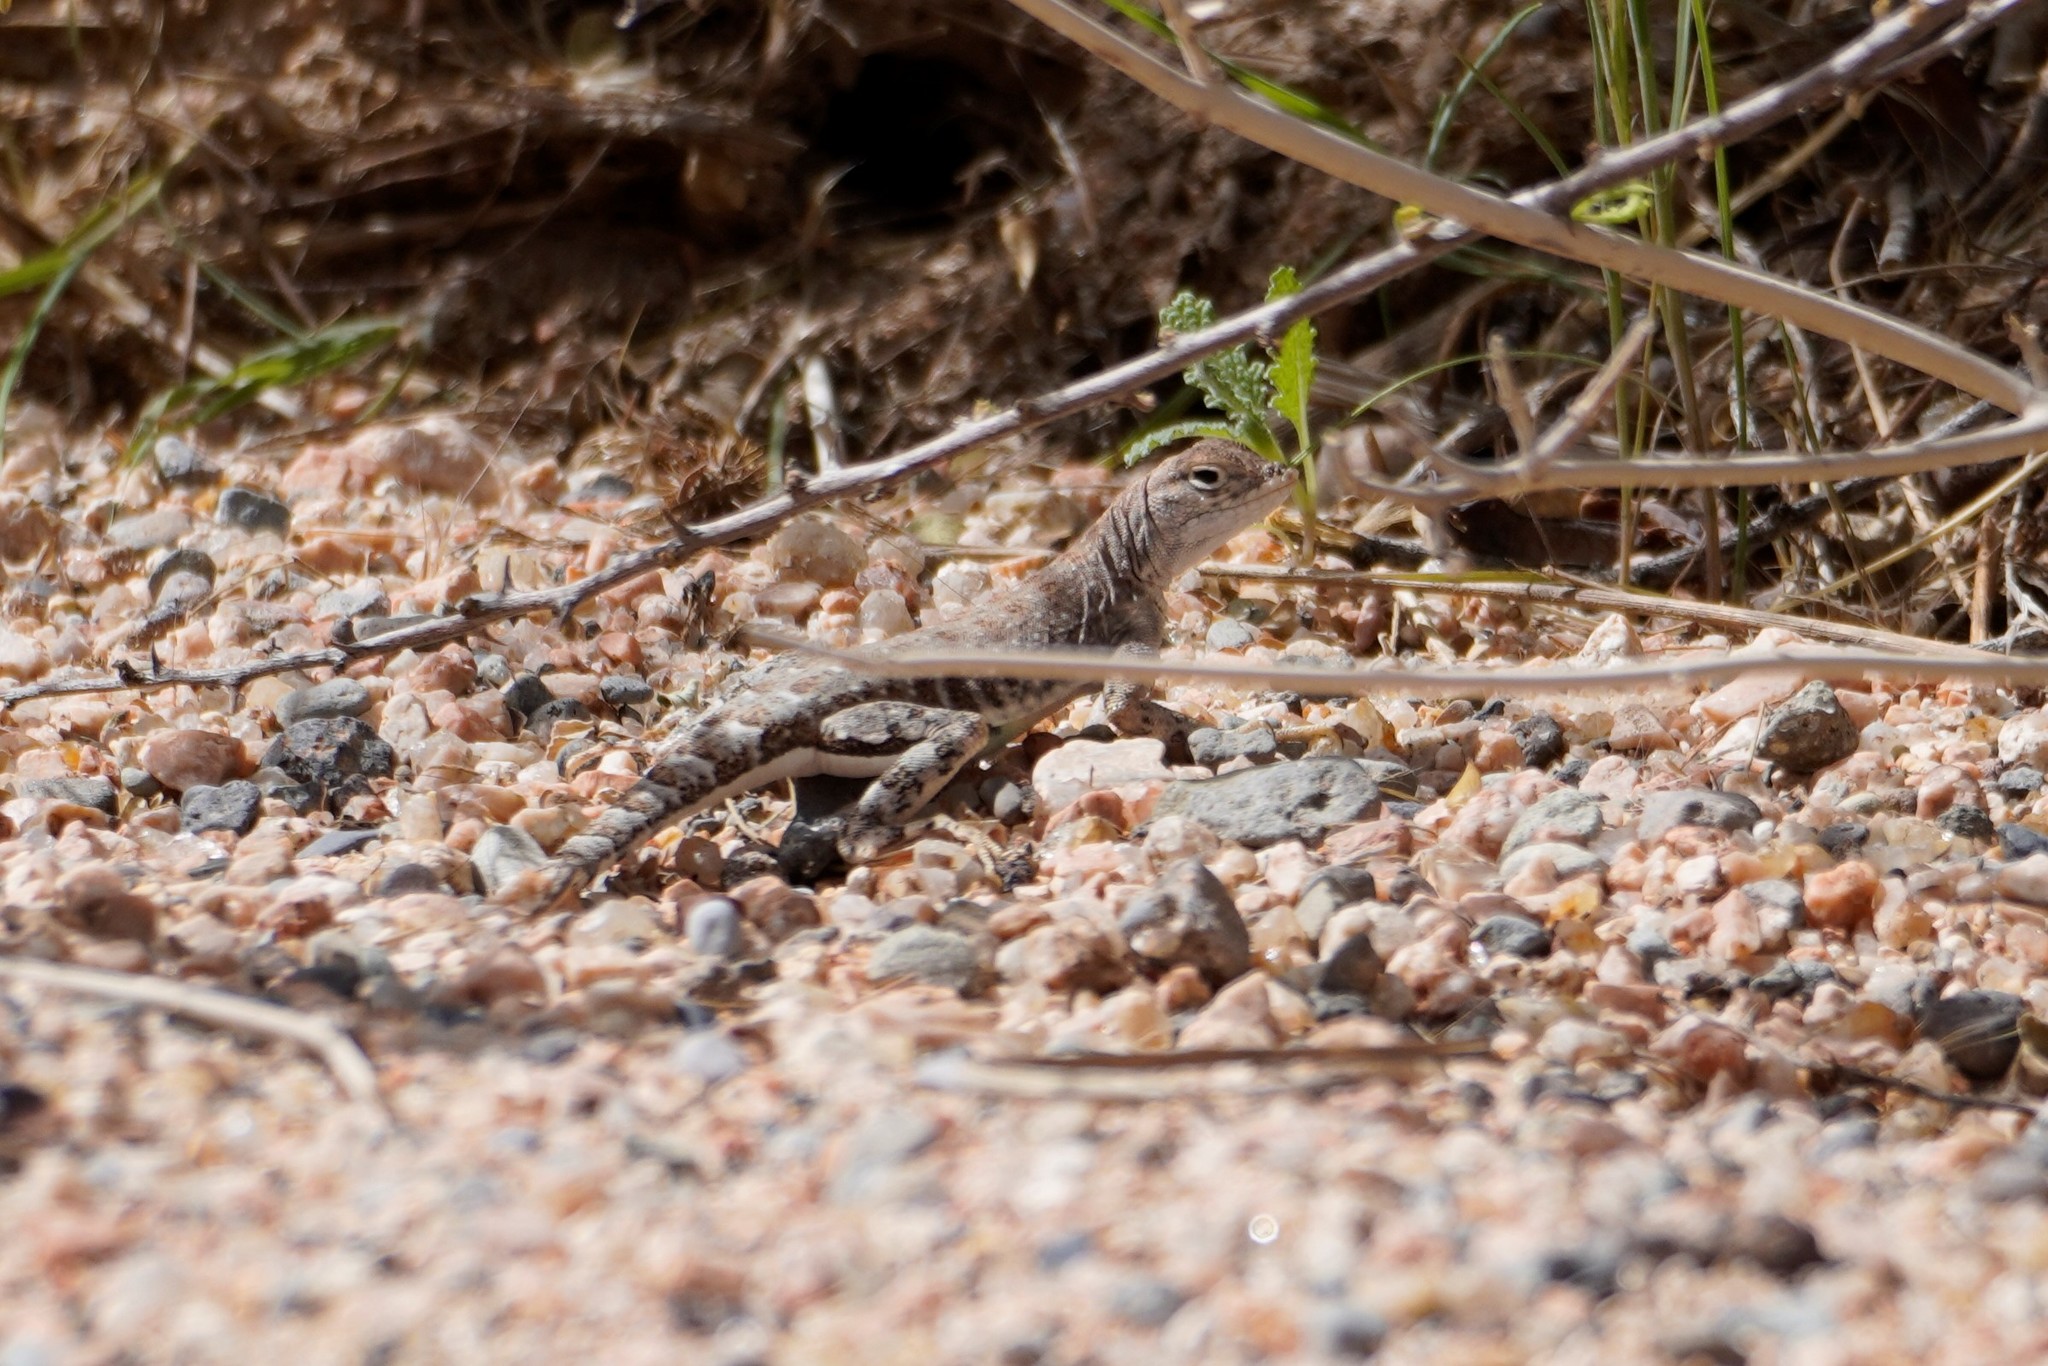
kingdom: Animalia
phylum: Chordata
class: Squamata
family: Phrynosomatidae
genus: Cophosaurus
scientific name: Cophosaurus texanus
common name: Greater earless lizard
